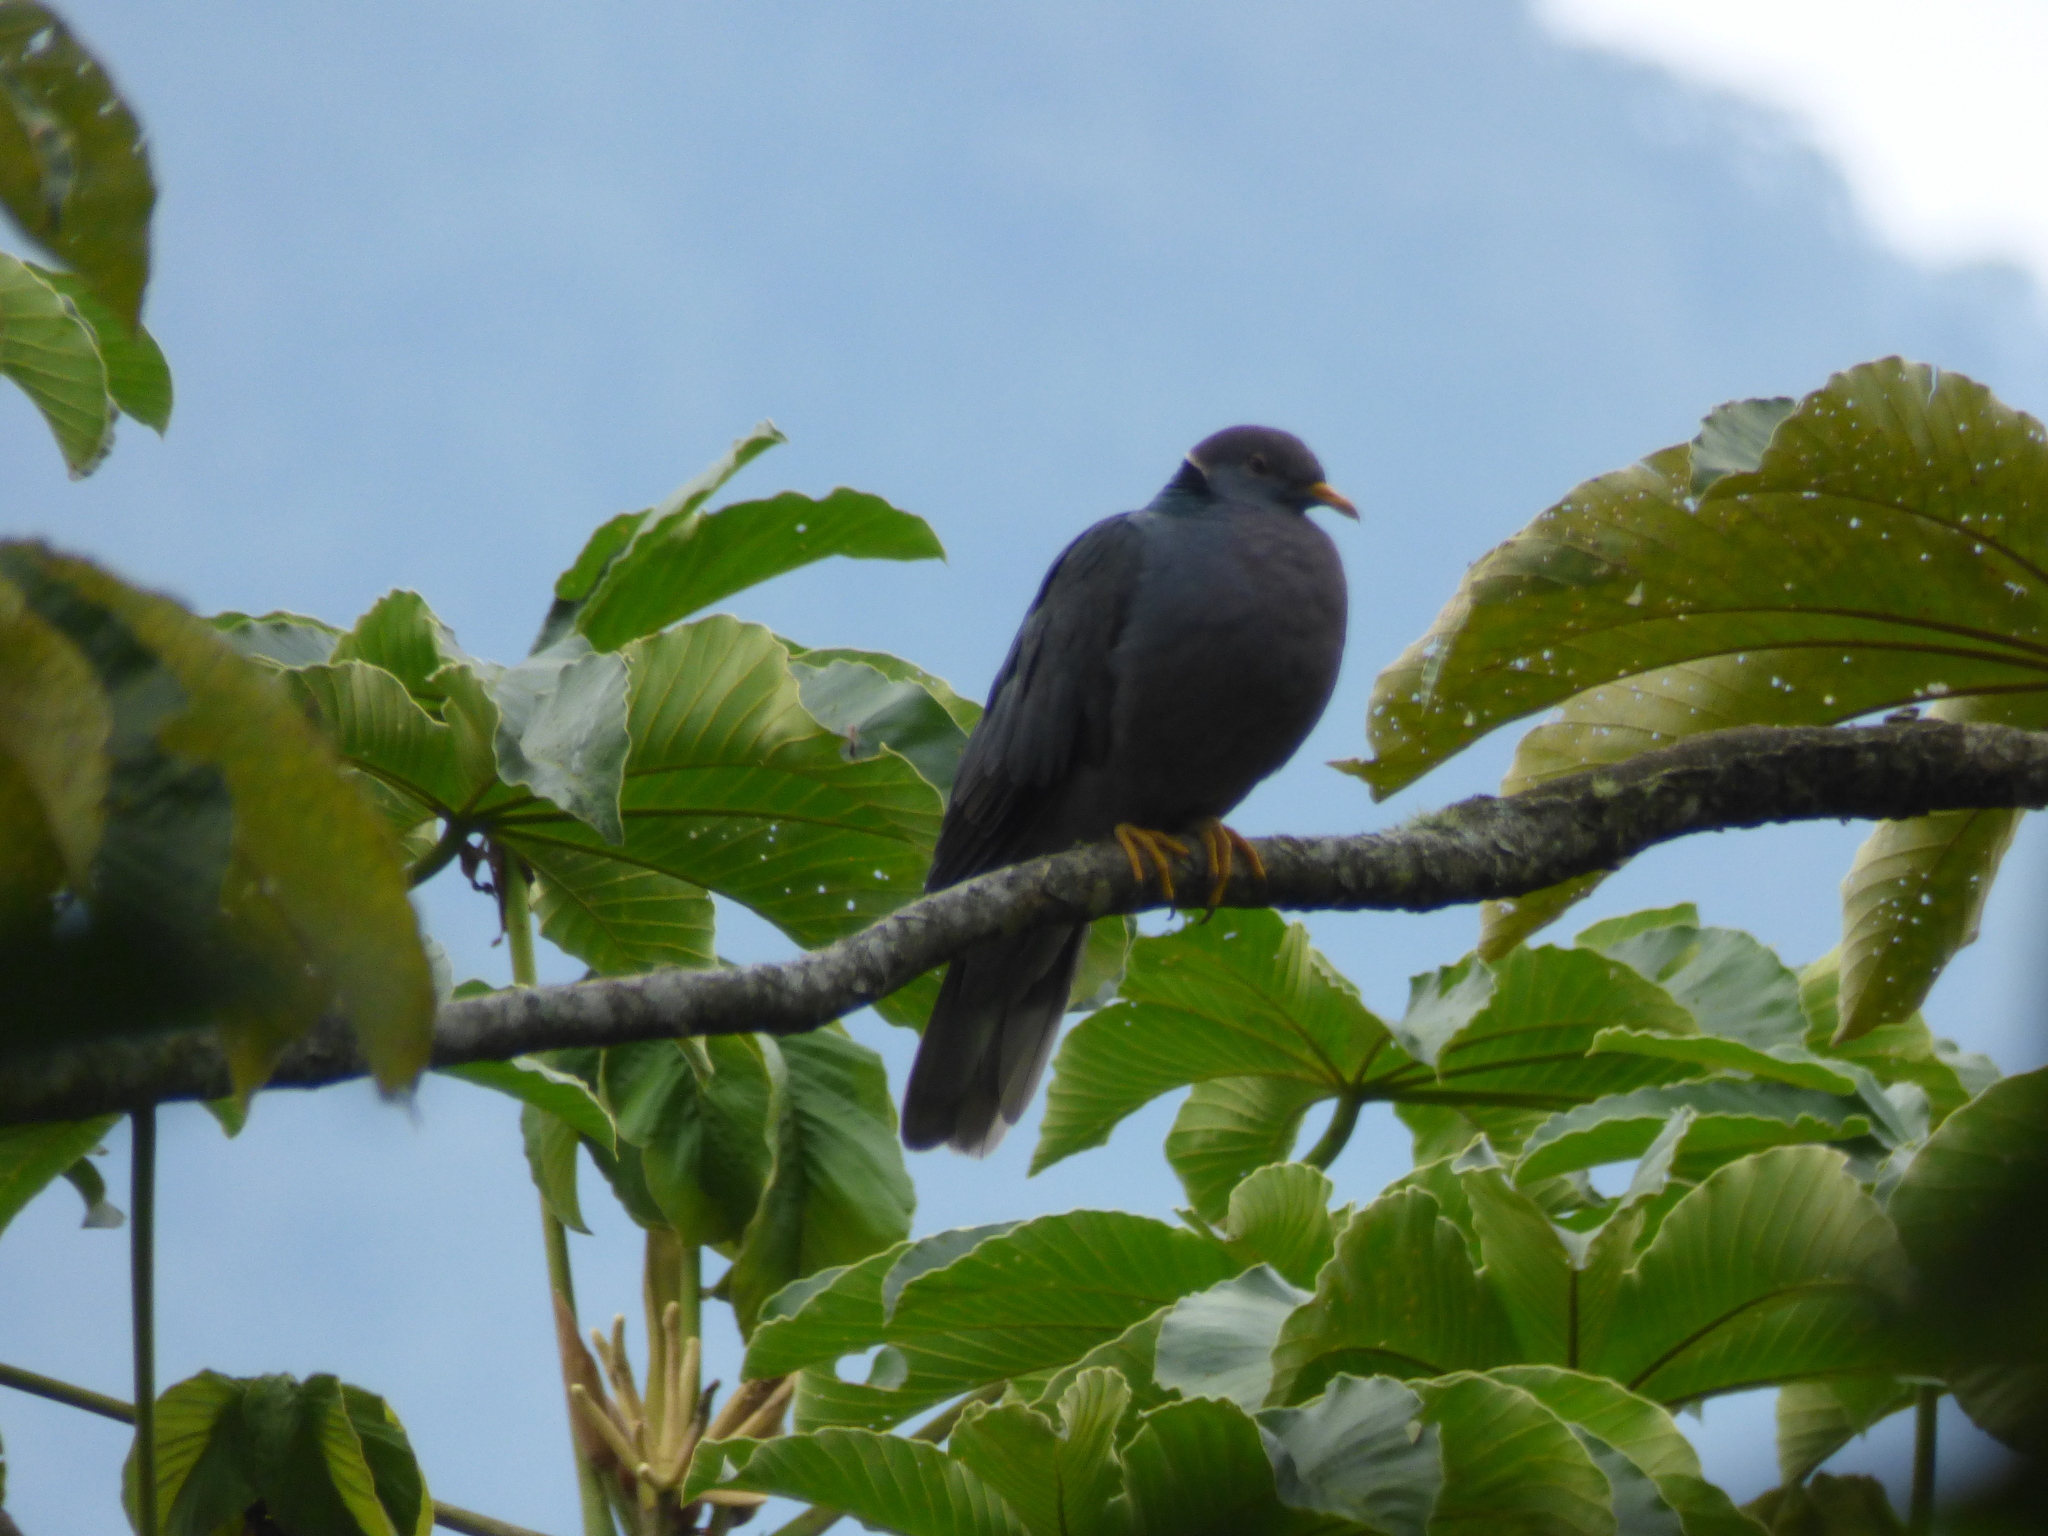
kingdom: Animalia
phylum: Chordata
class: Aves
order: Columbiformes
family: Columbidae
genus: Patagioenas
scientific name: Patagioenas fasciata
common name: Band-tailed pigeon
